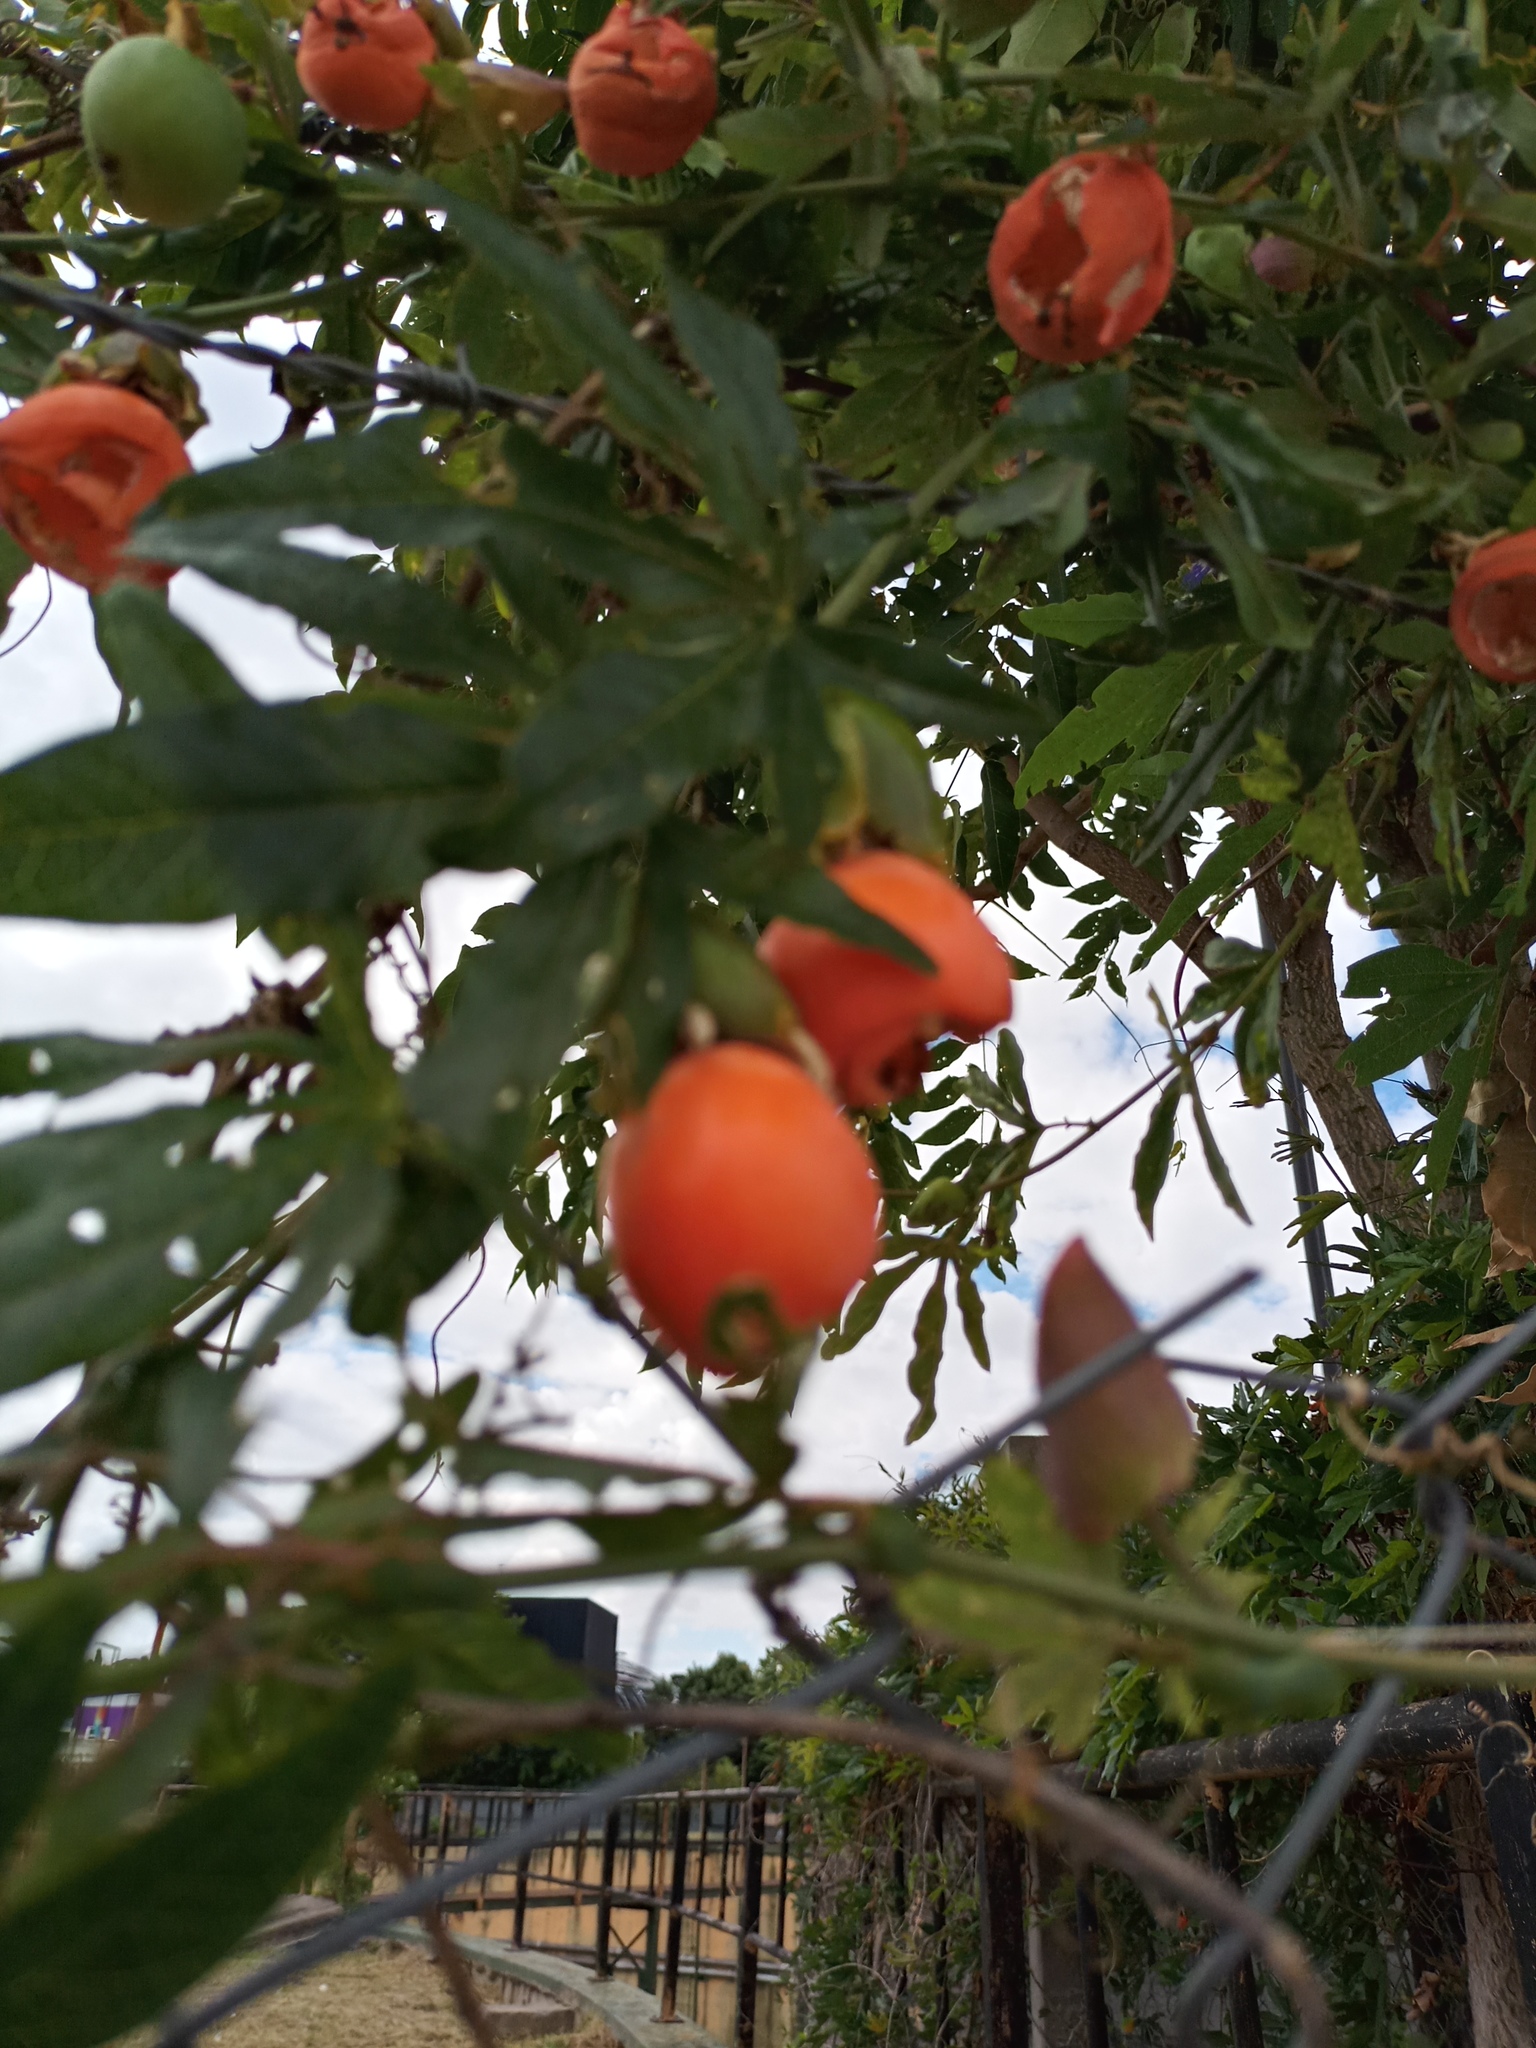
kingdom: Plantae
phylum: Tracheophyta
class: Magnoliopsida
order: Malpighiales
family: Passifloraceae
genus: Passiflora
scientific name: Passiflora caerulea
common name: Blue passionflower
